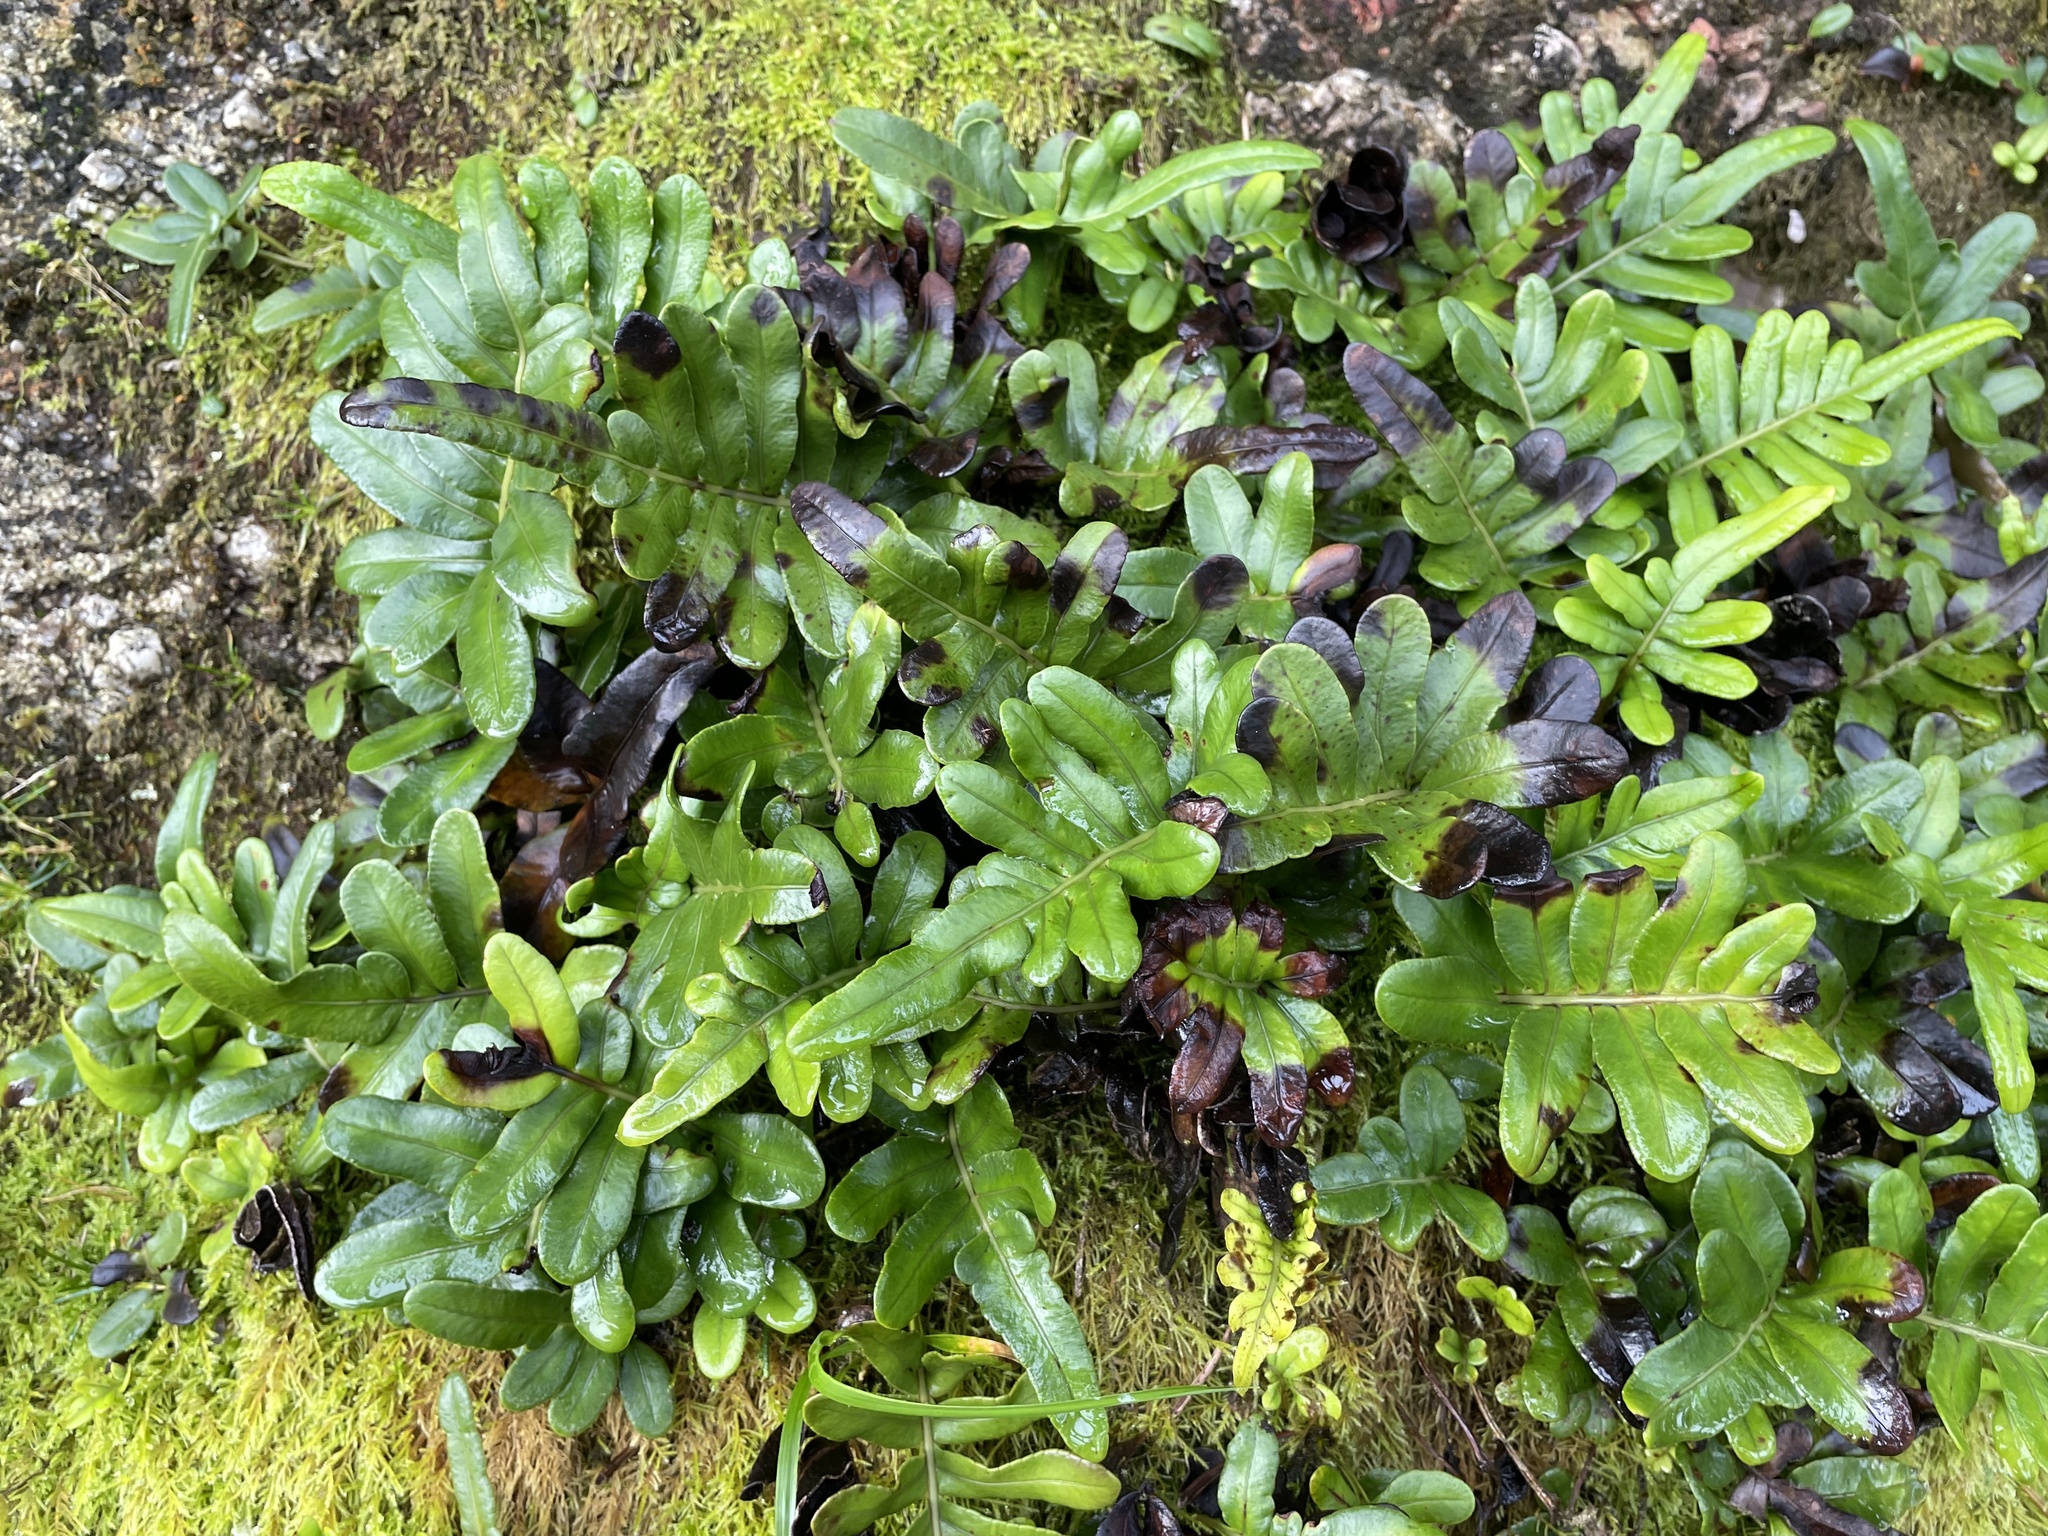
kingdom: Plantae
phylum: Tracheophyta
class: Polypodiopsida
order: Polypodiales
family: Polypodiaceae
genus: Polypodium
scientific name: Polypodium scouleri
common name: Scouler's polypody
